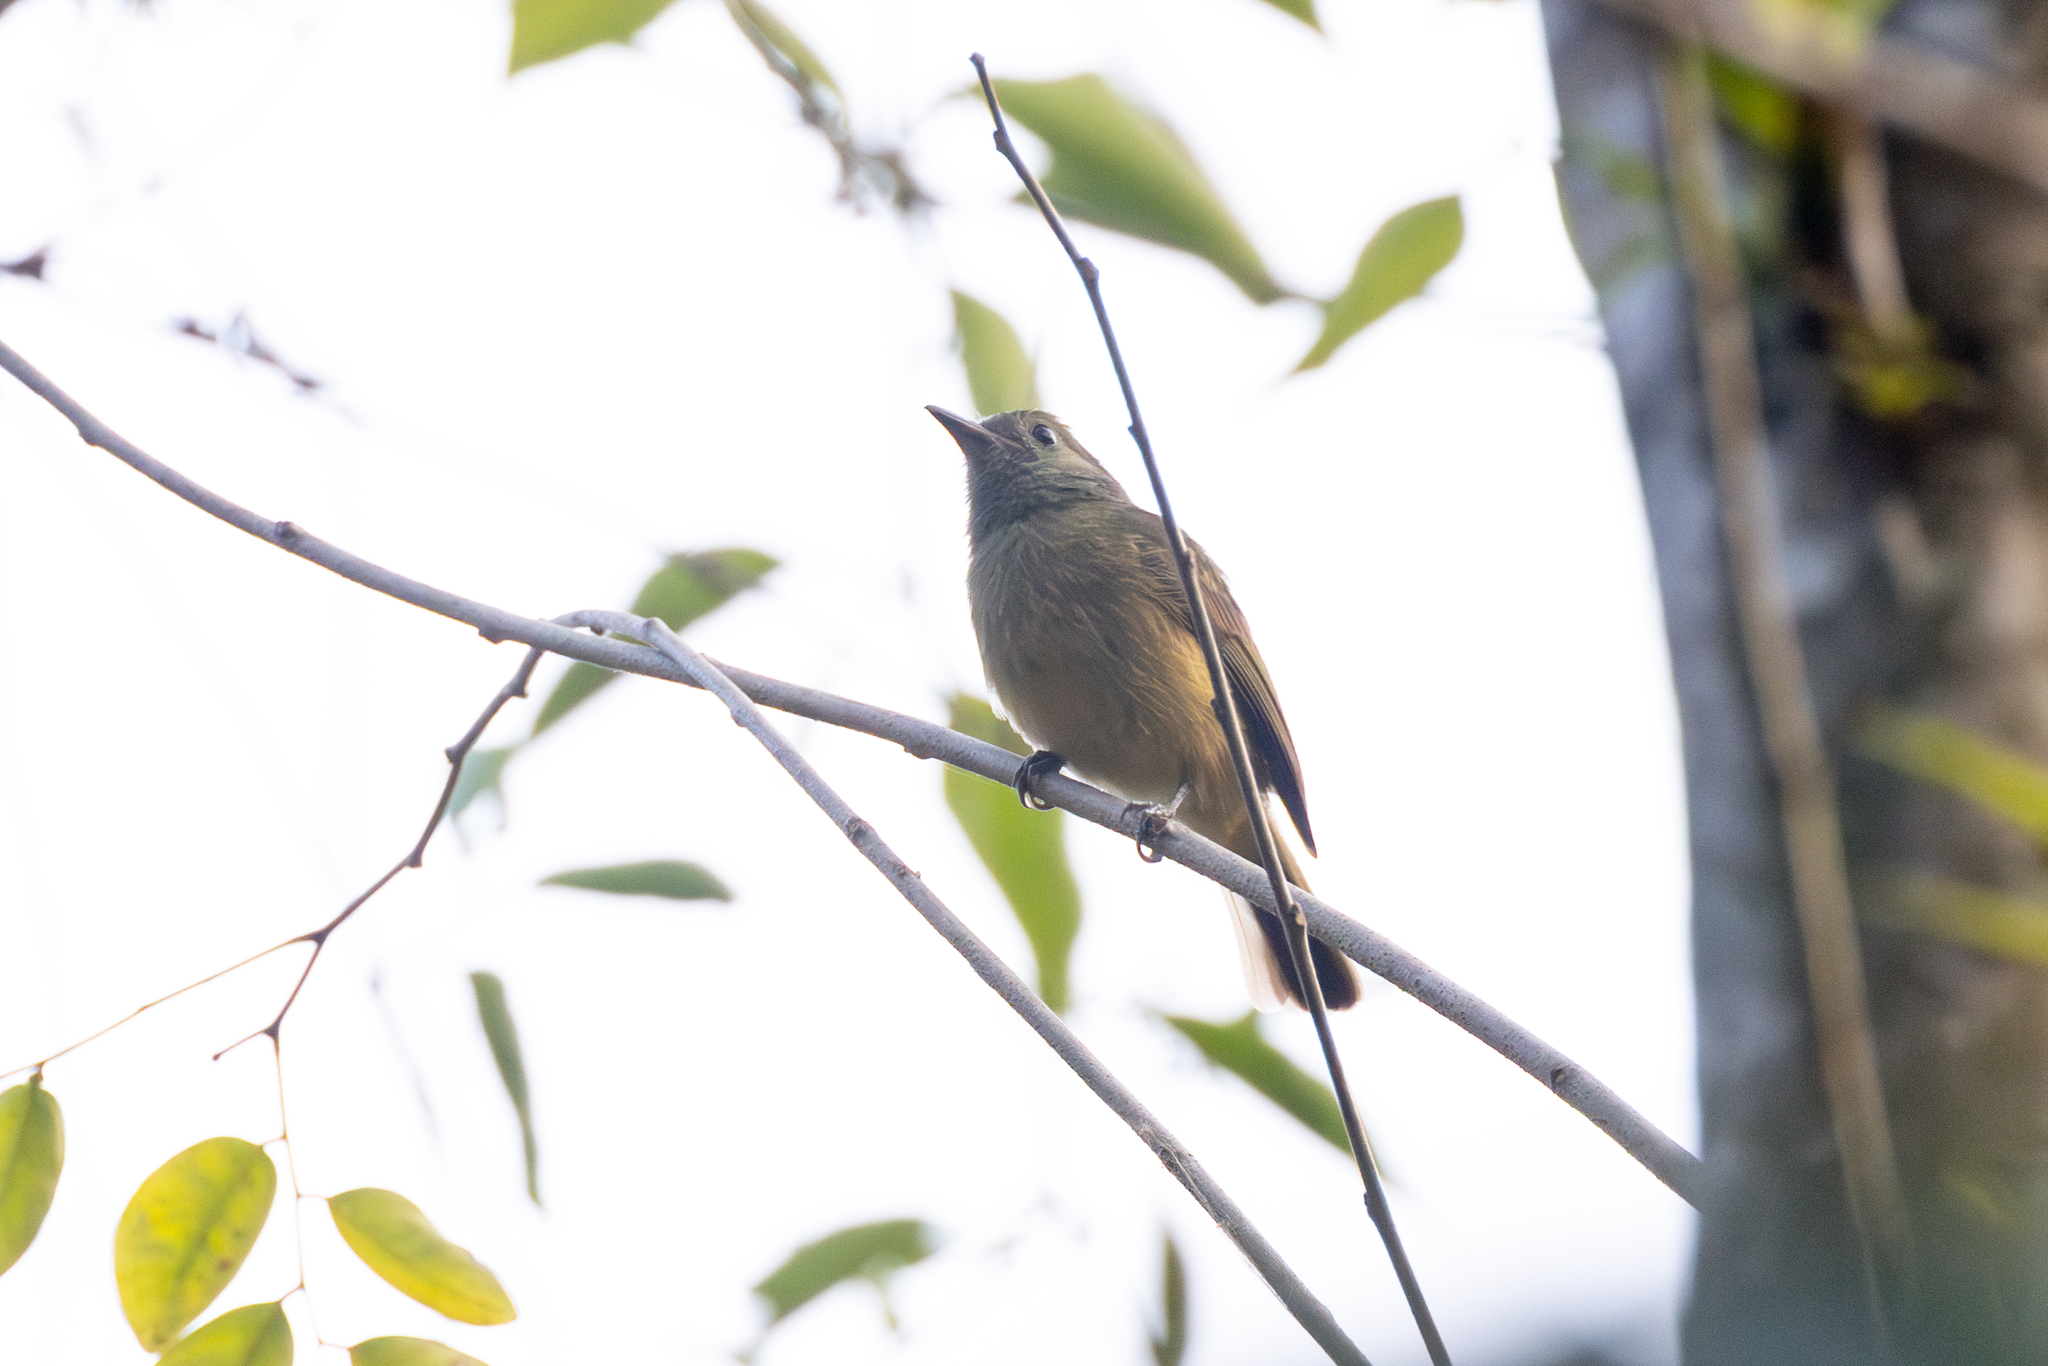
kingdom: Animalia
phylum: Chordata
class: Aves
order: Passeriformes
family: Tyrannidae
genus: Mionectes
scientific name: Mionectes oleagineus
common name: Ochre-bellied flycatcher
